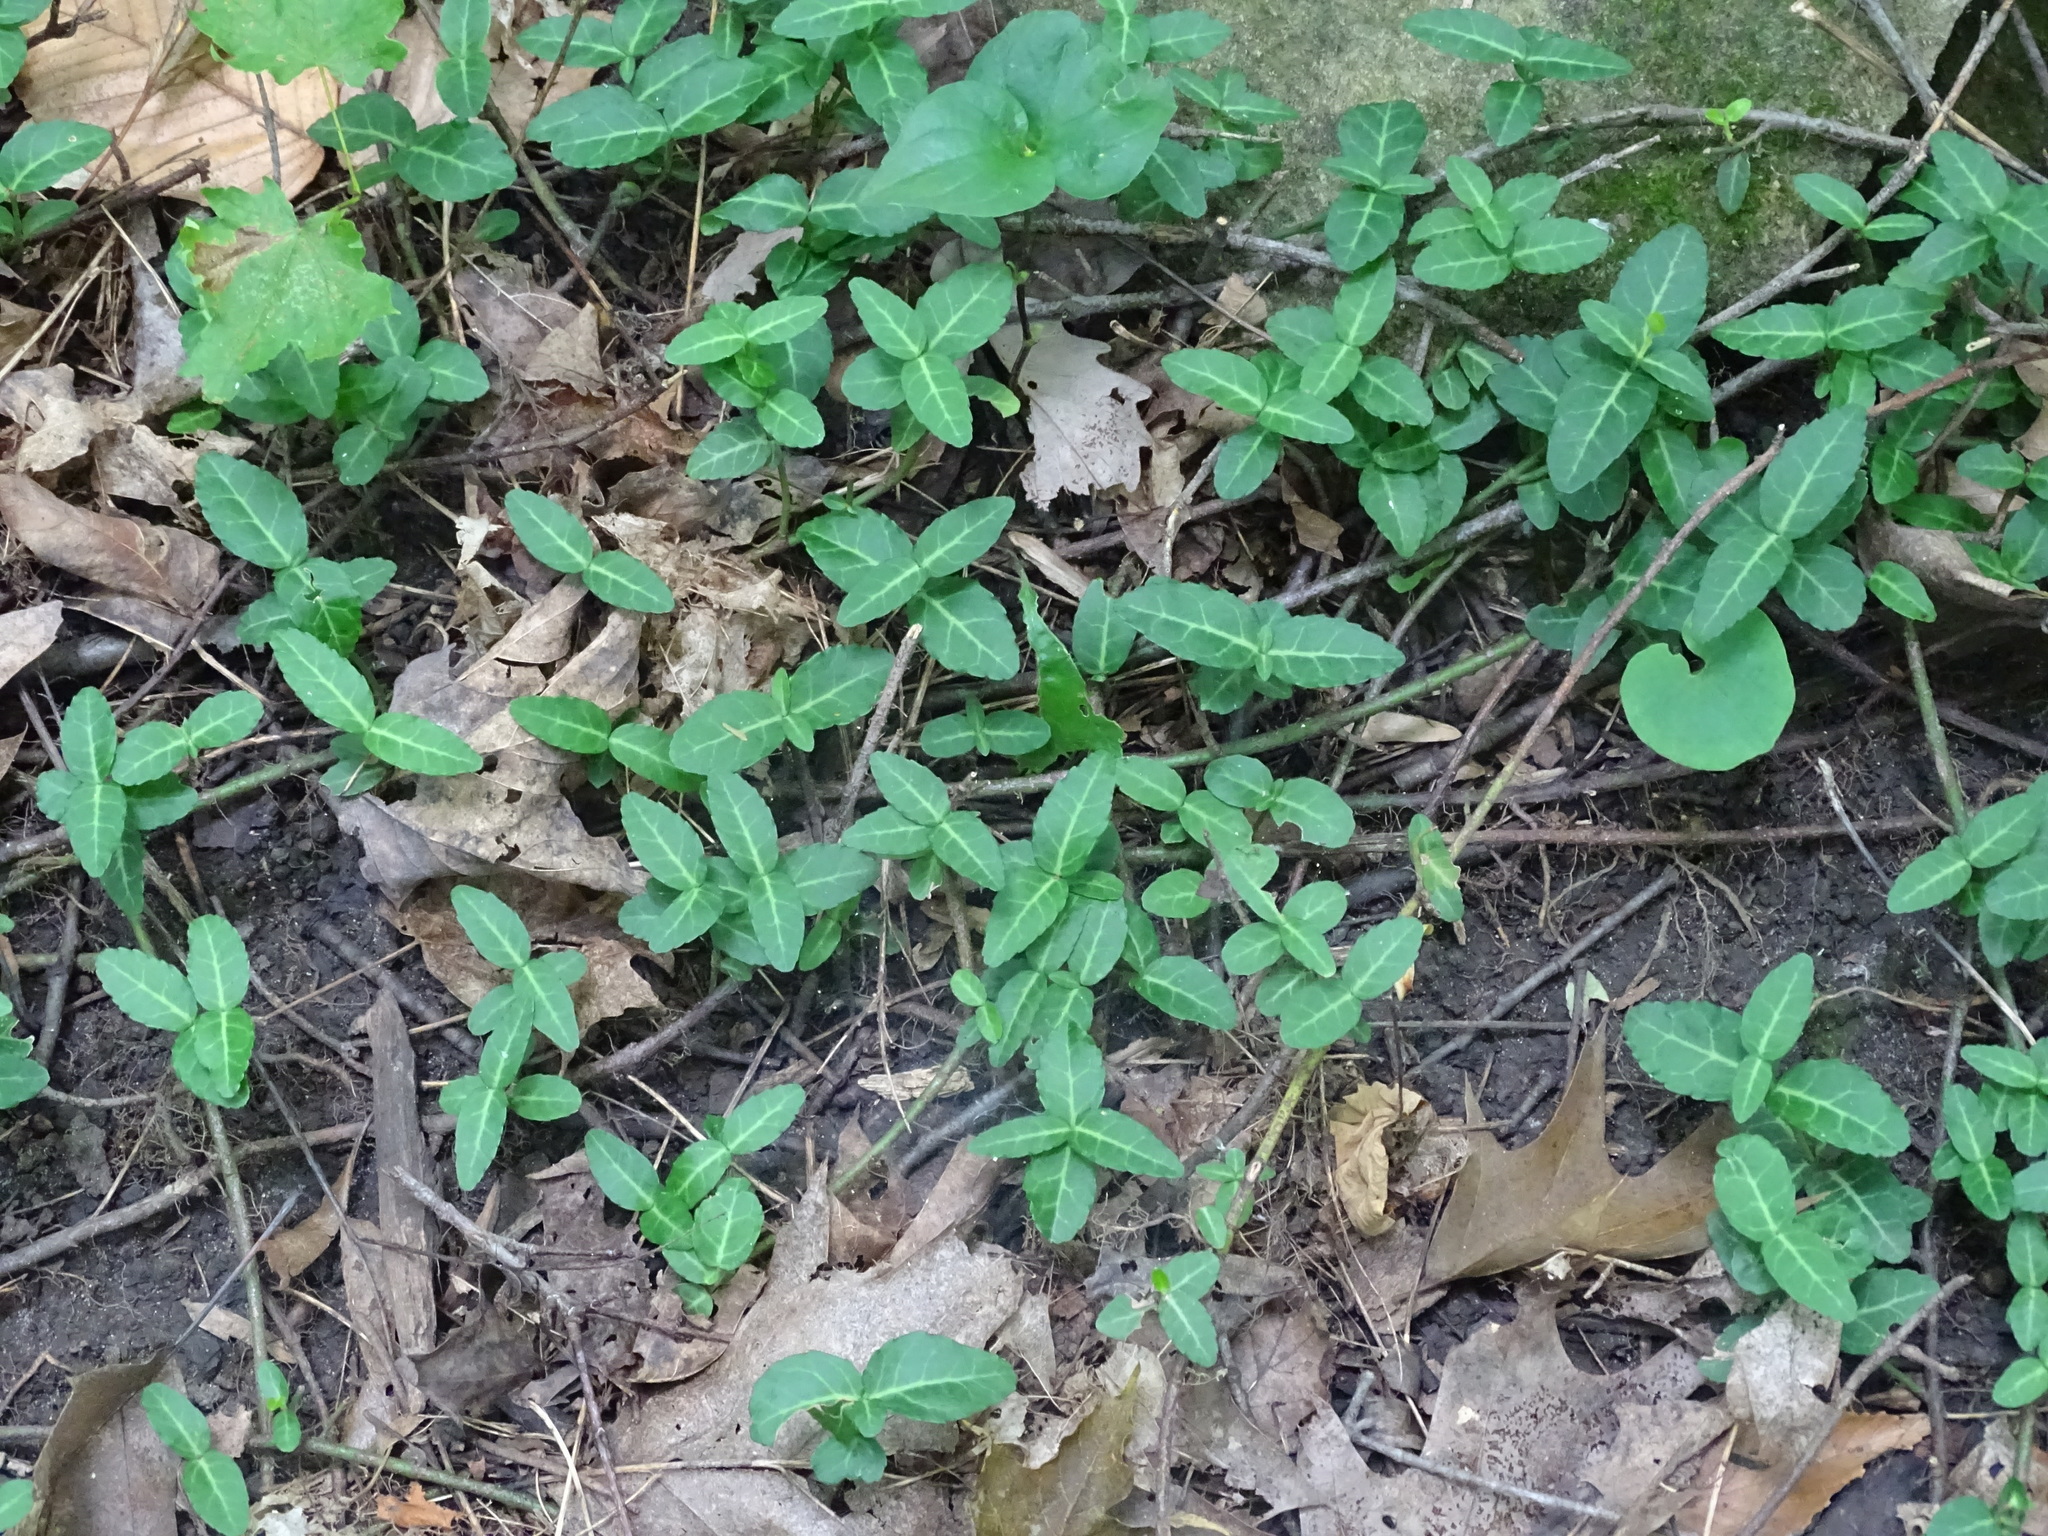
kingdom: Plantae
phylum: Tracheophyta
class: Magnoliopsida
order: Celastrales
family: Celastraceae
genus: Euonymus
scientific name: Euonymus fortunei
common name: Climbing euonymus
